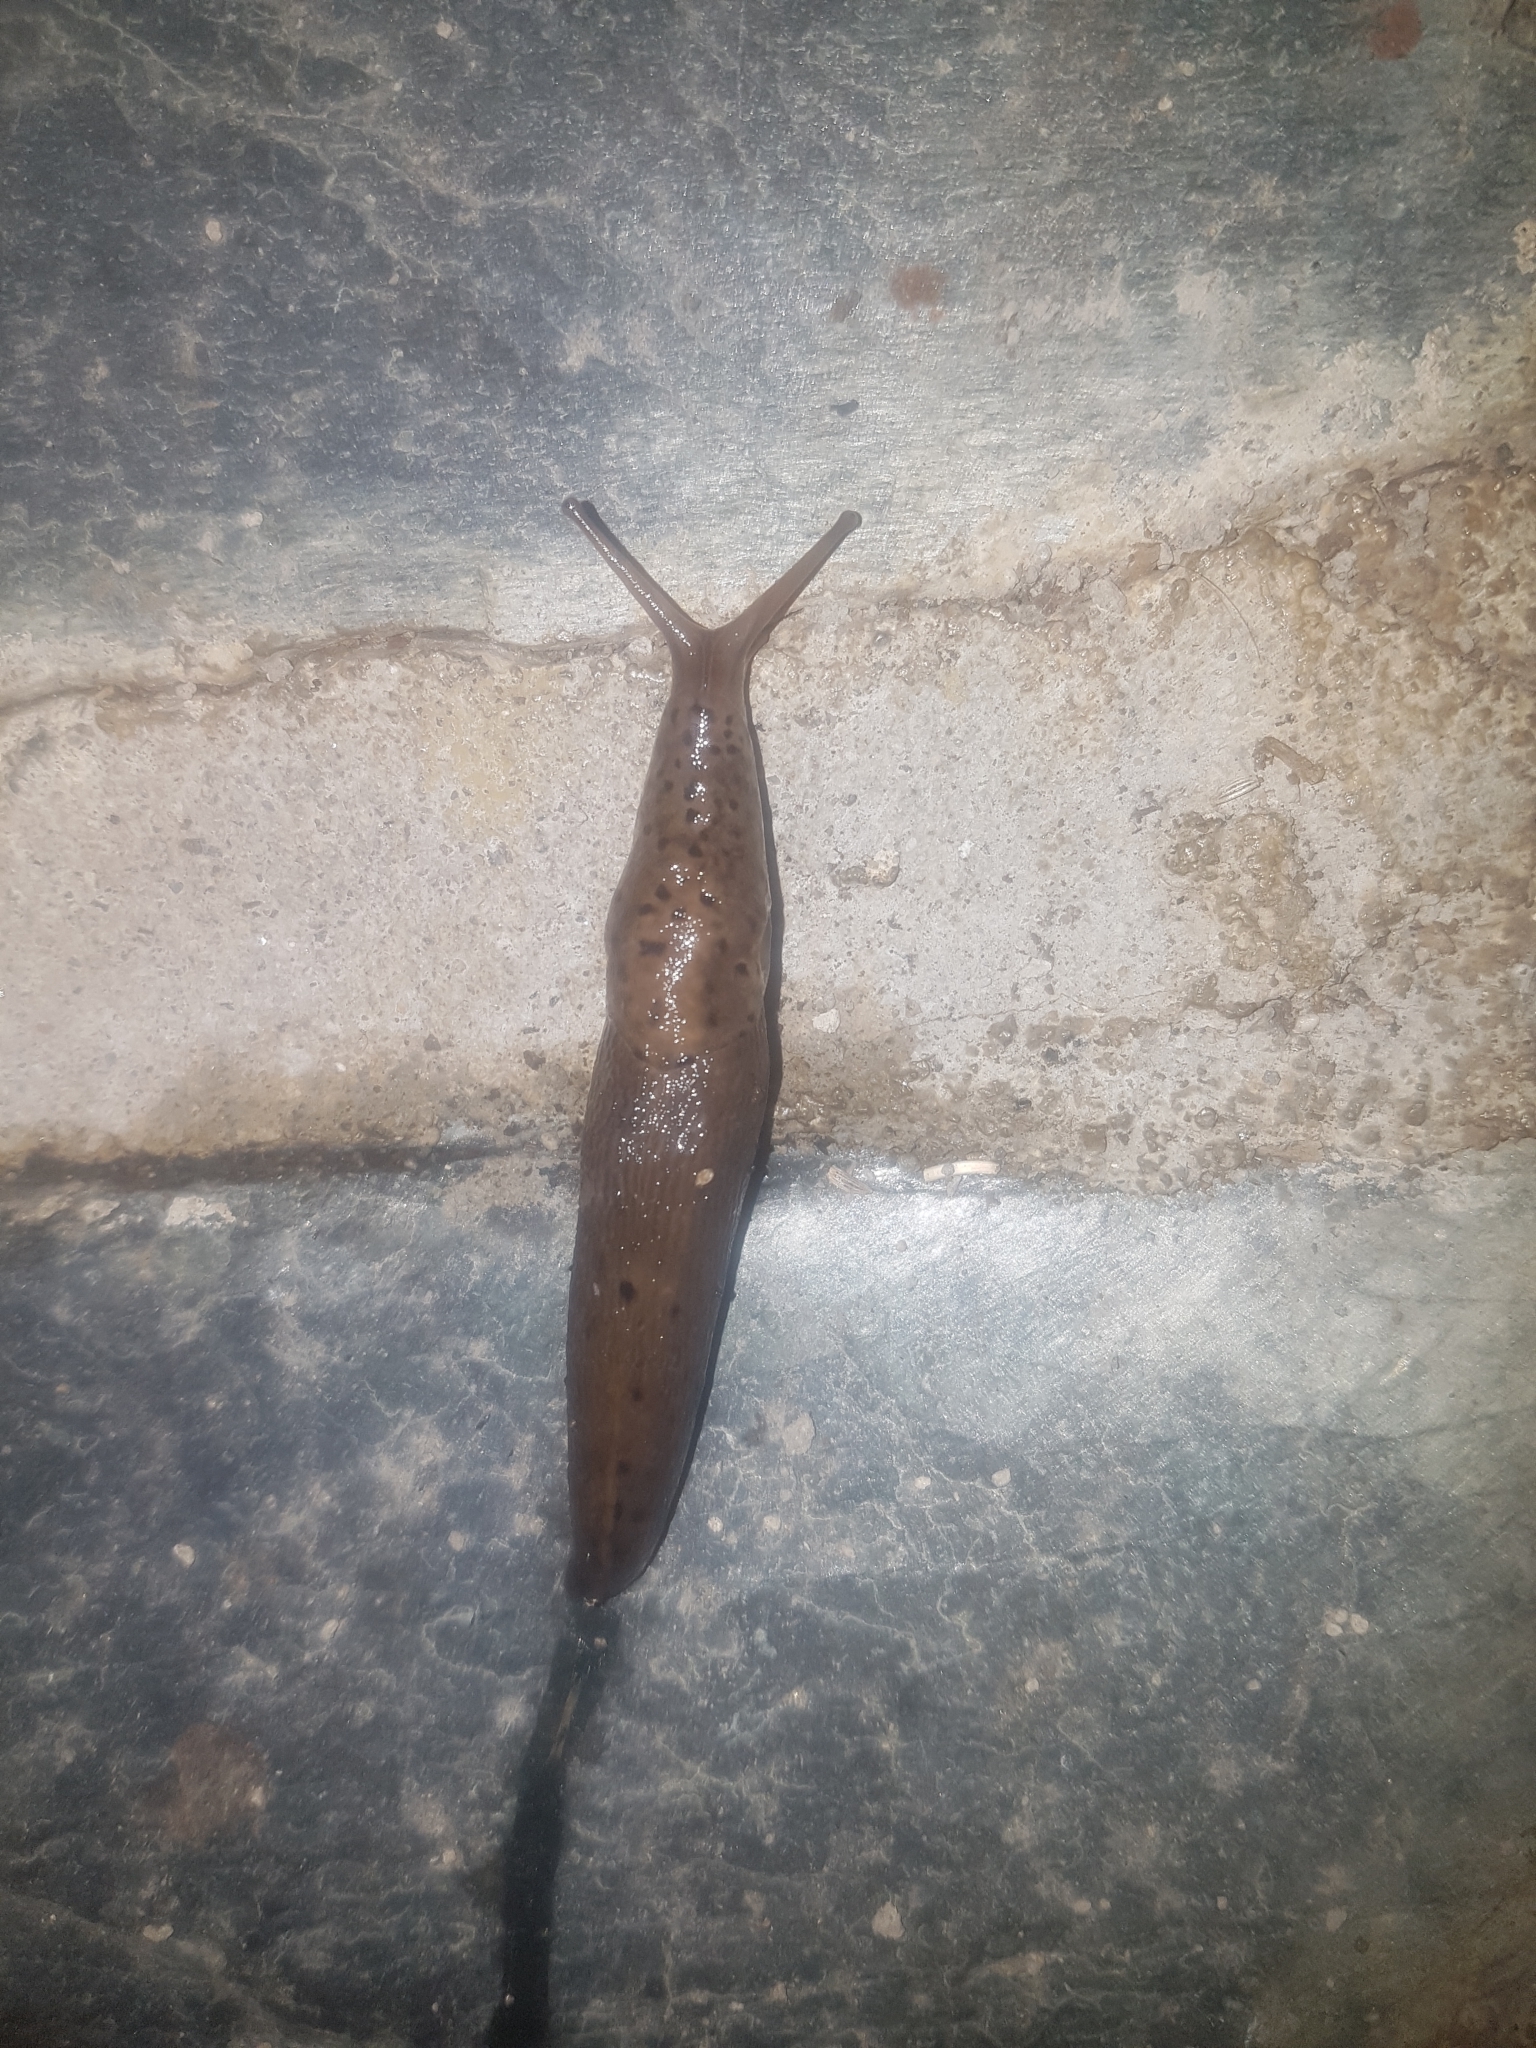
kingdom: Animalia
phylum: Mollusca
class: Gastropoda
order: Stylommatophora
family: Limacidae
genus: Limax
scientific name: Limax maximus
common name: Great grey slug
